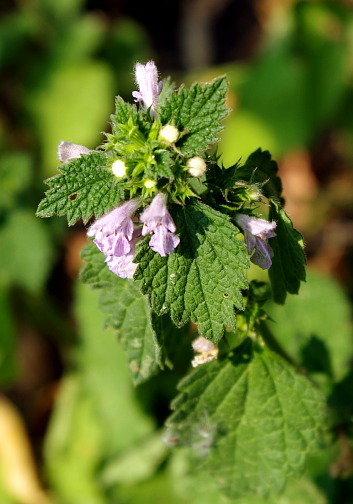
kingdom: Plantae
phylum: Tracheophyta
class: Magnoliopsida
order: Lamiales
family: Lamiaceae
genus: Ballota
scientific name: Ballota nigra
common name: Black horehound
